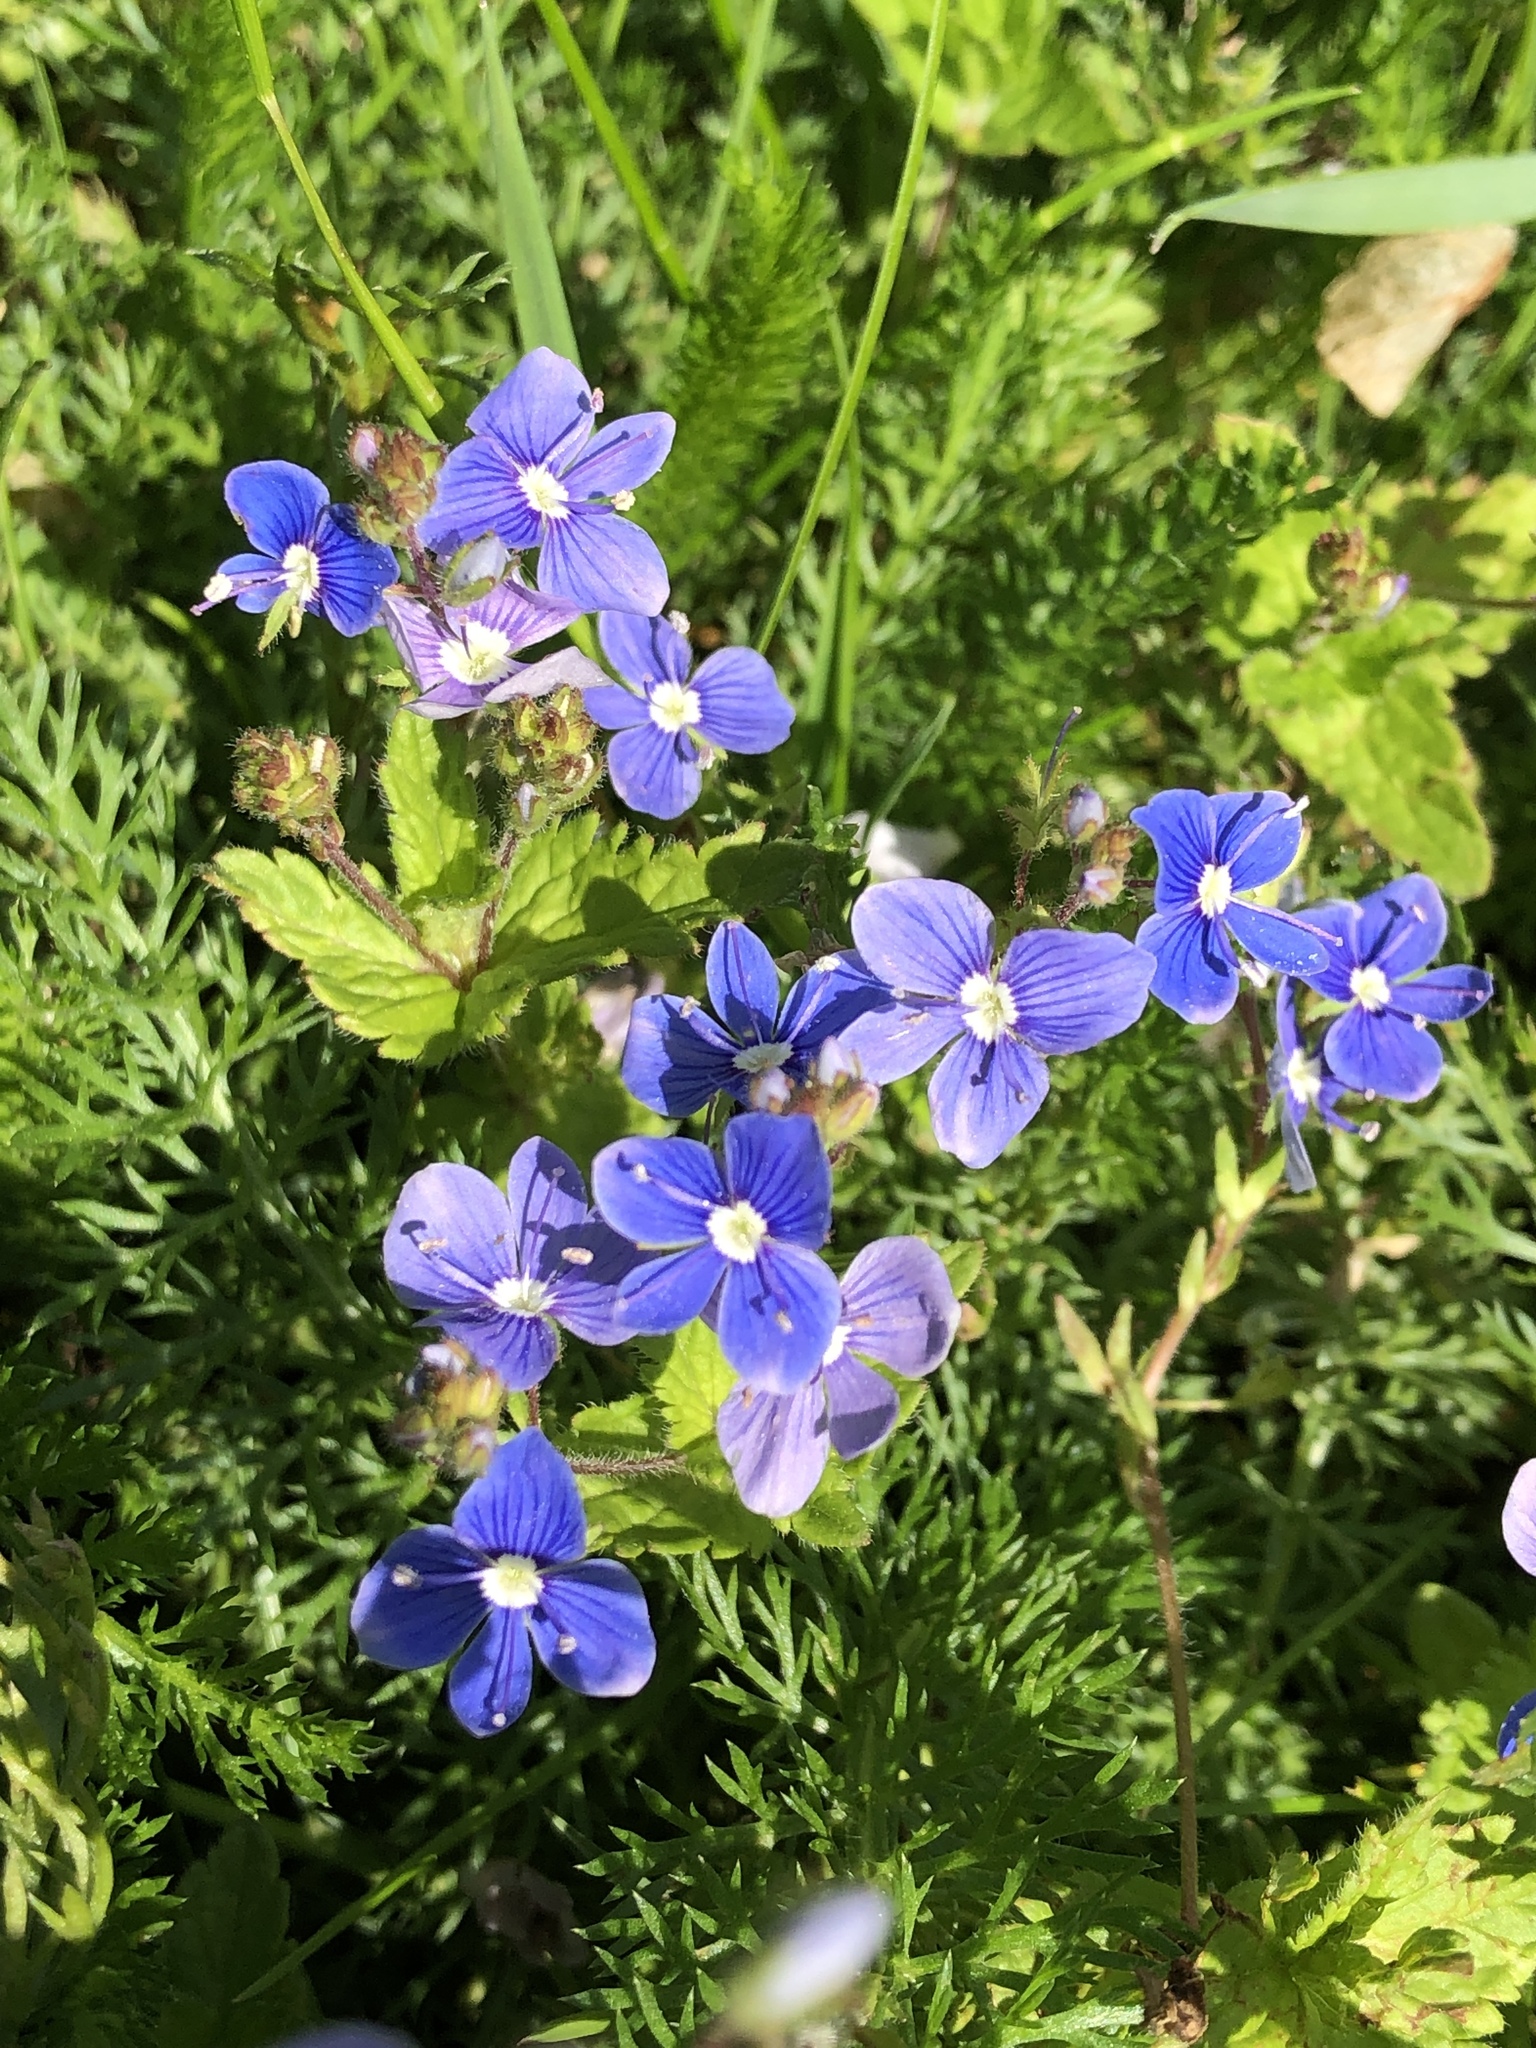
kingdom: Plantae
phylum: Tracheophyta
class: Magnoliopsida
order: Lamiales
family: Plantaginaceae
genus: Veronica
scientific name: Veronica chamaedrys
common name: Germander speedwell
